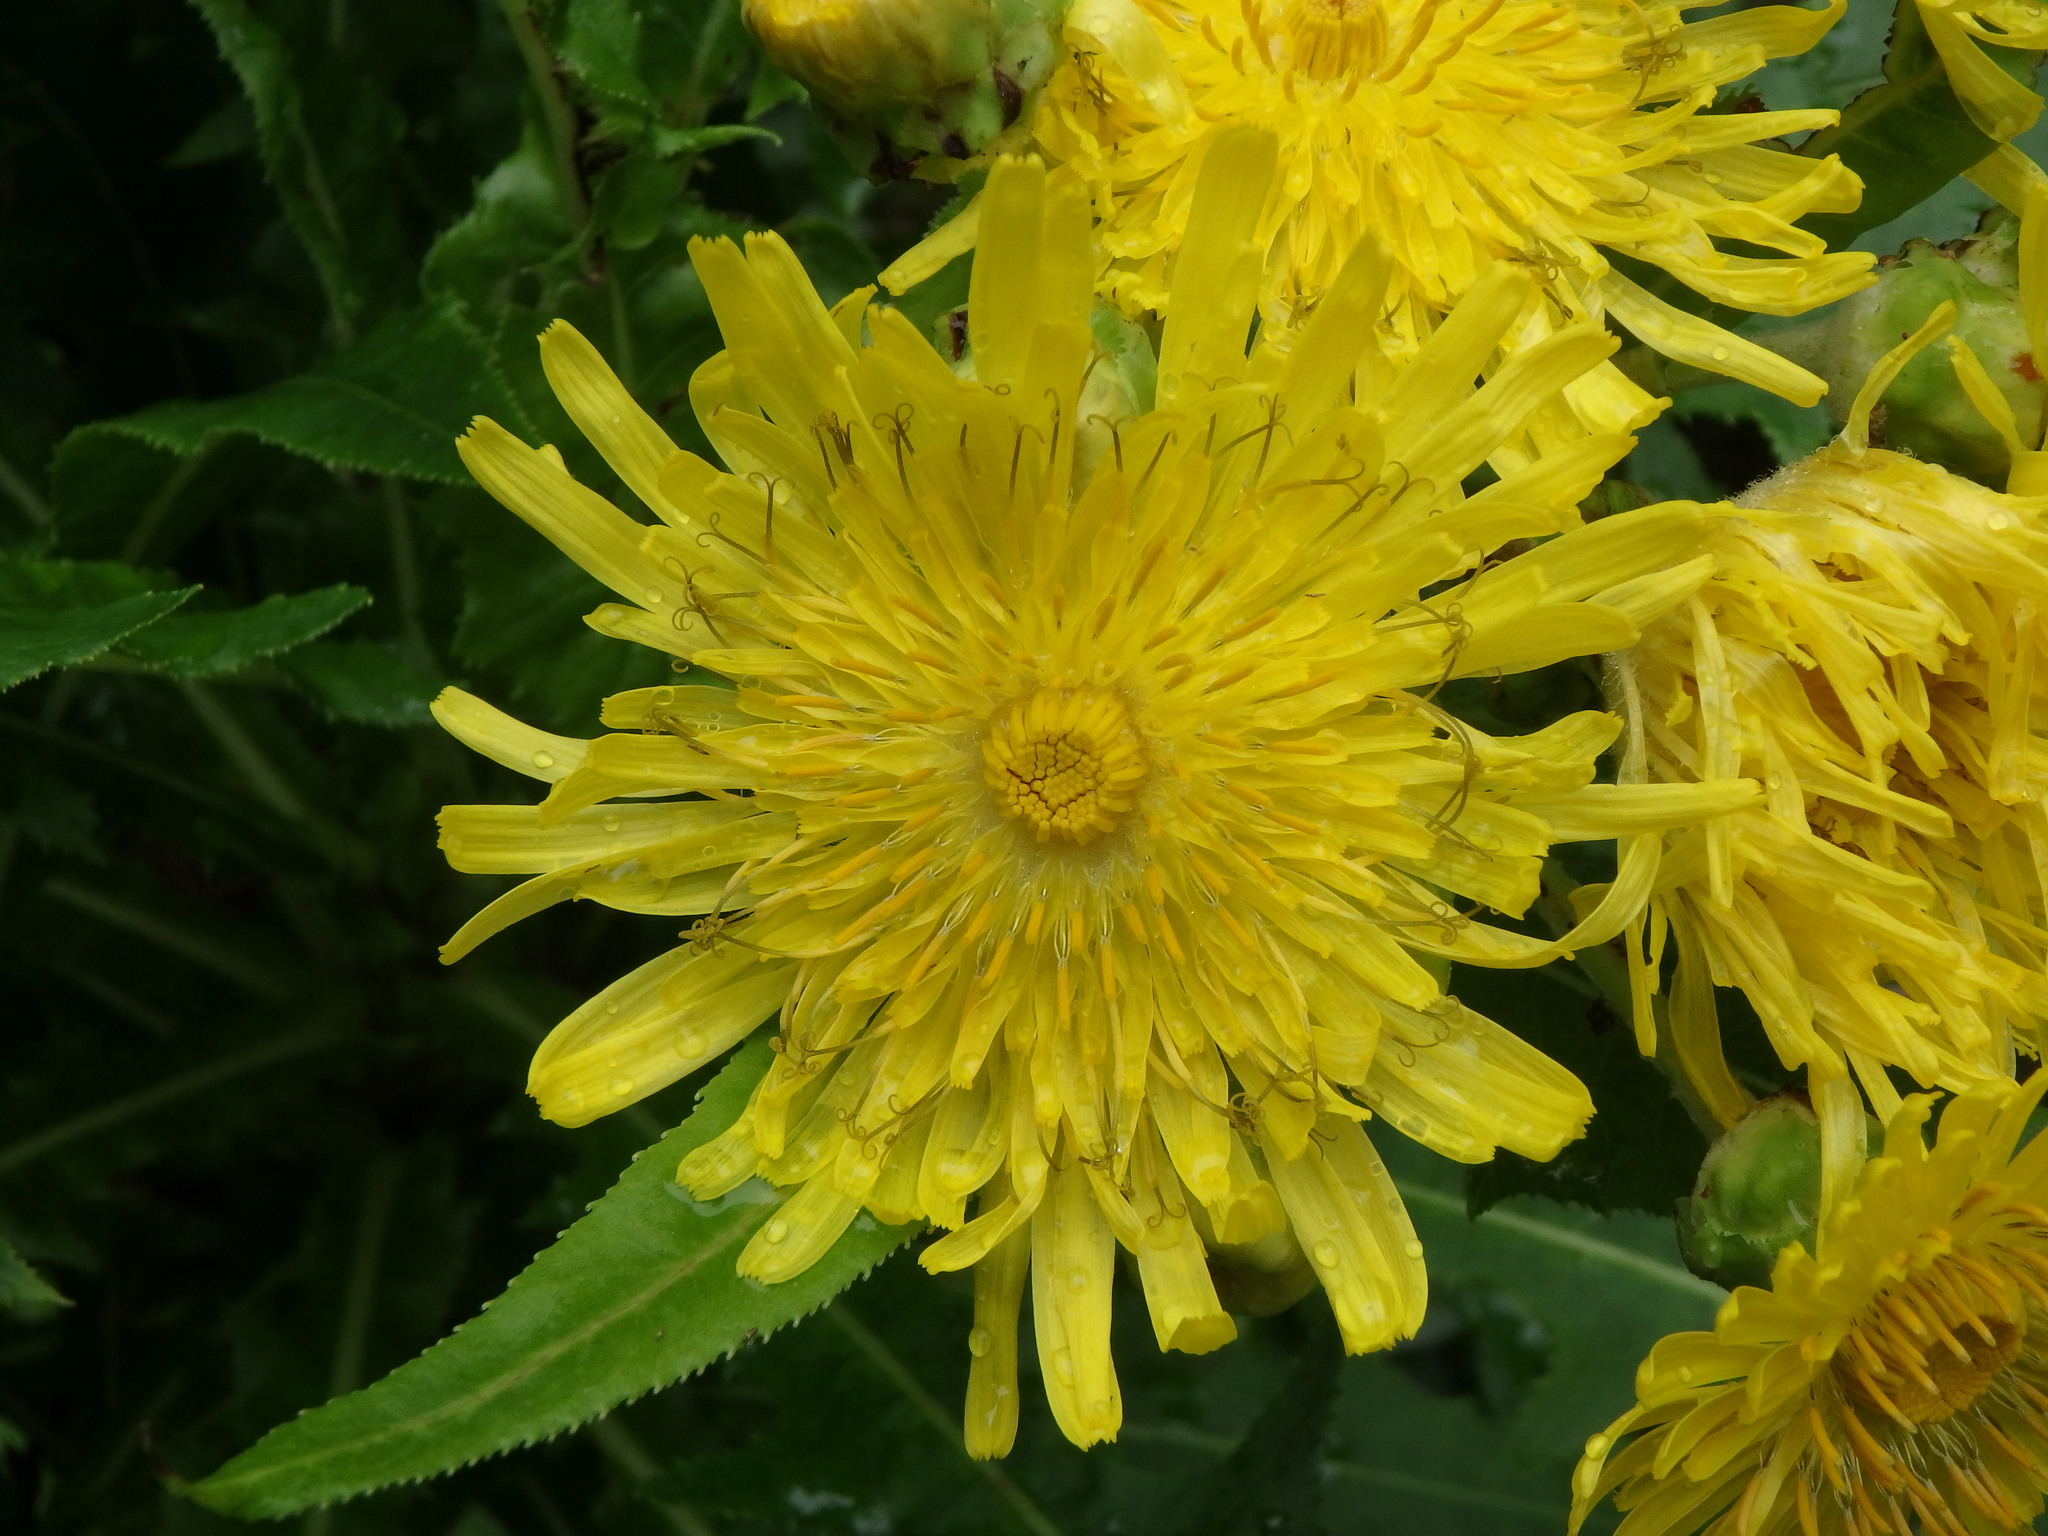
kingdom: Plantae
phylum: Tracheophyta
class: Magnoliopsida
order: Asterales
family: Asteraceae
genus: Sonchus
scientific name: Sonchus congestus
